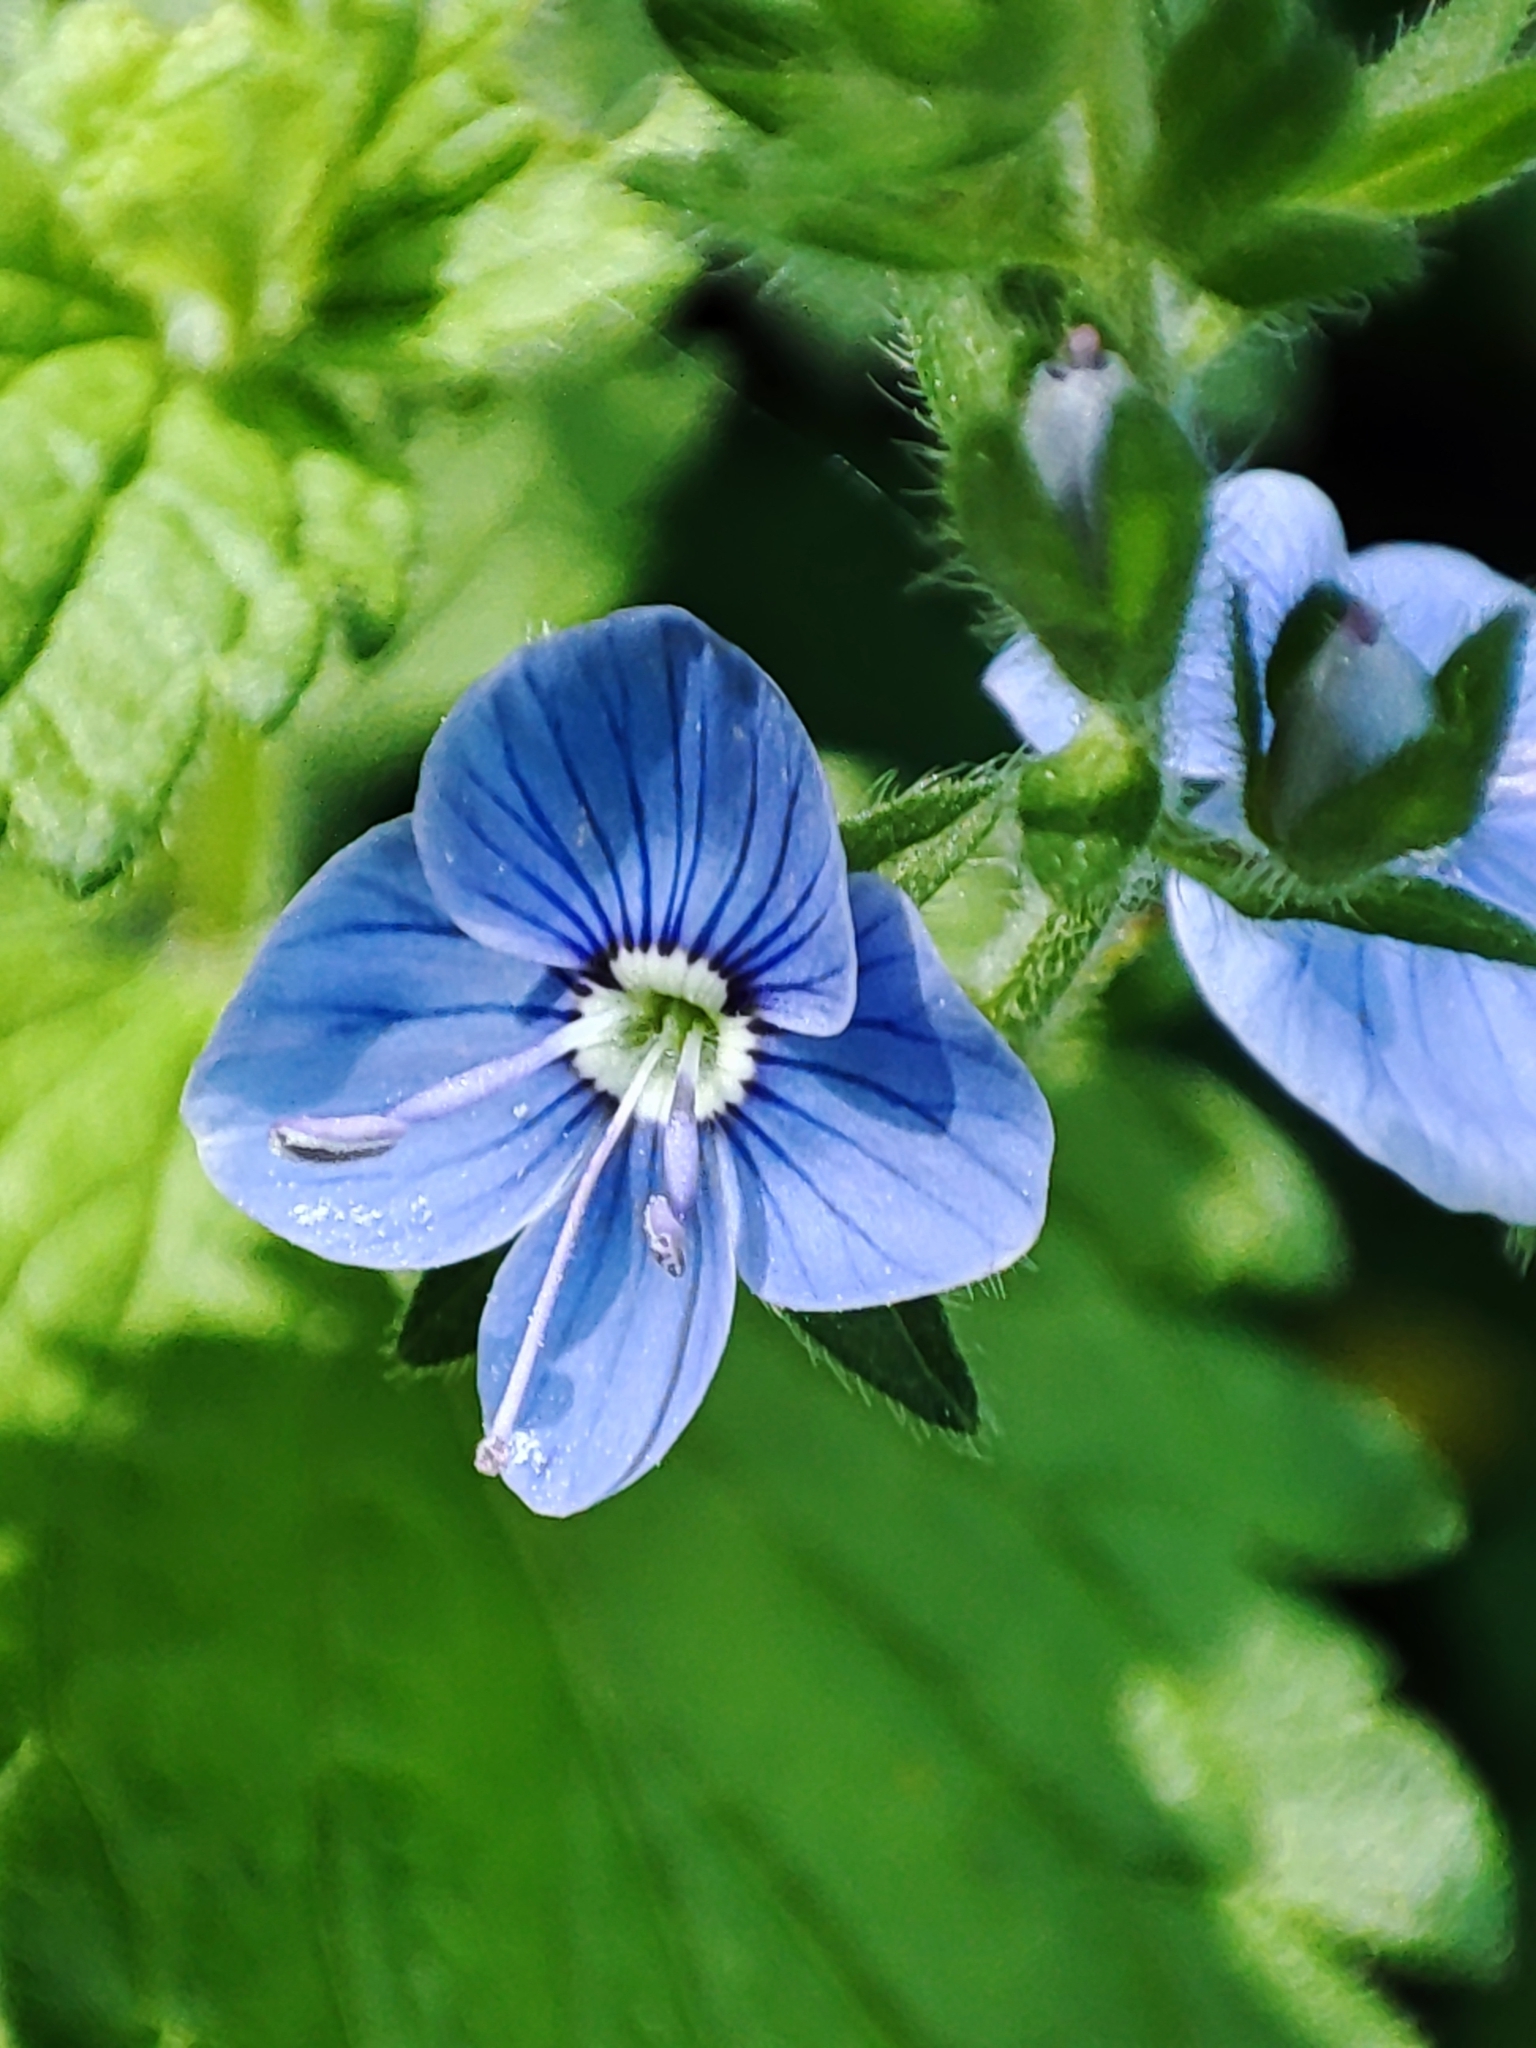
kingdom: Plantae
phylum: Tracheophyta
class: Magnoliopsida
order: Lamiales
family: Plantaginaceae
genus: Veronica
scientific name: Veronica chamaedrys
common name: Germander speedwell
